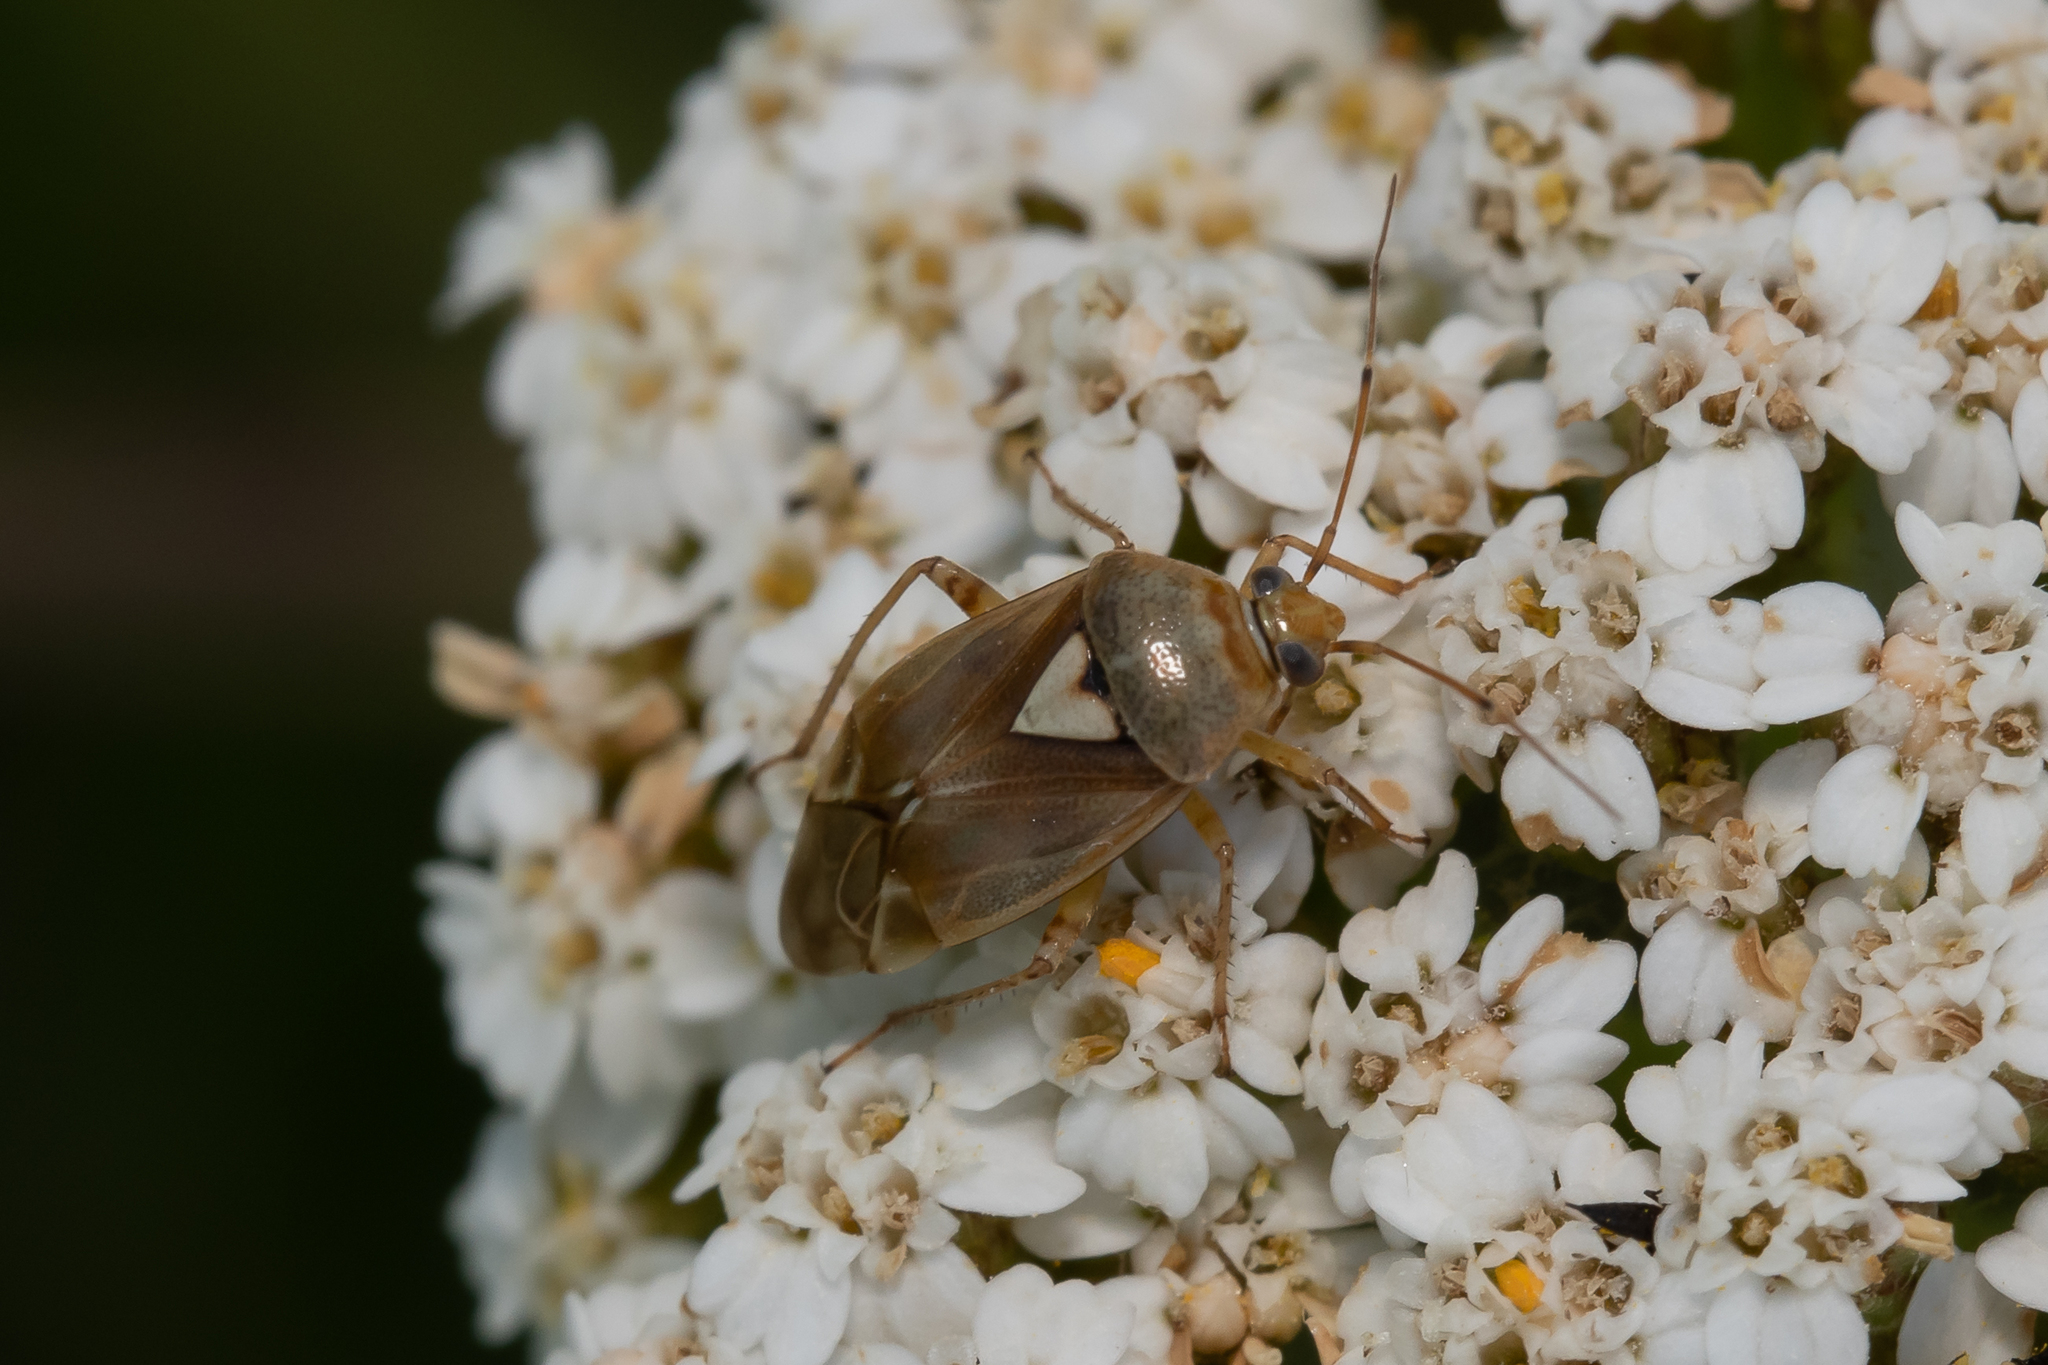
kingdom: Animalia
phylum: Arthropoda
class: Insecta
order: Hemiptera
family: Miridae
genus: Lygus
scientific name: Lygus pratensis
